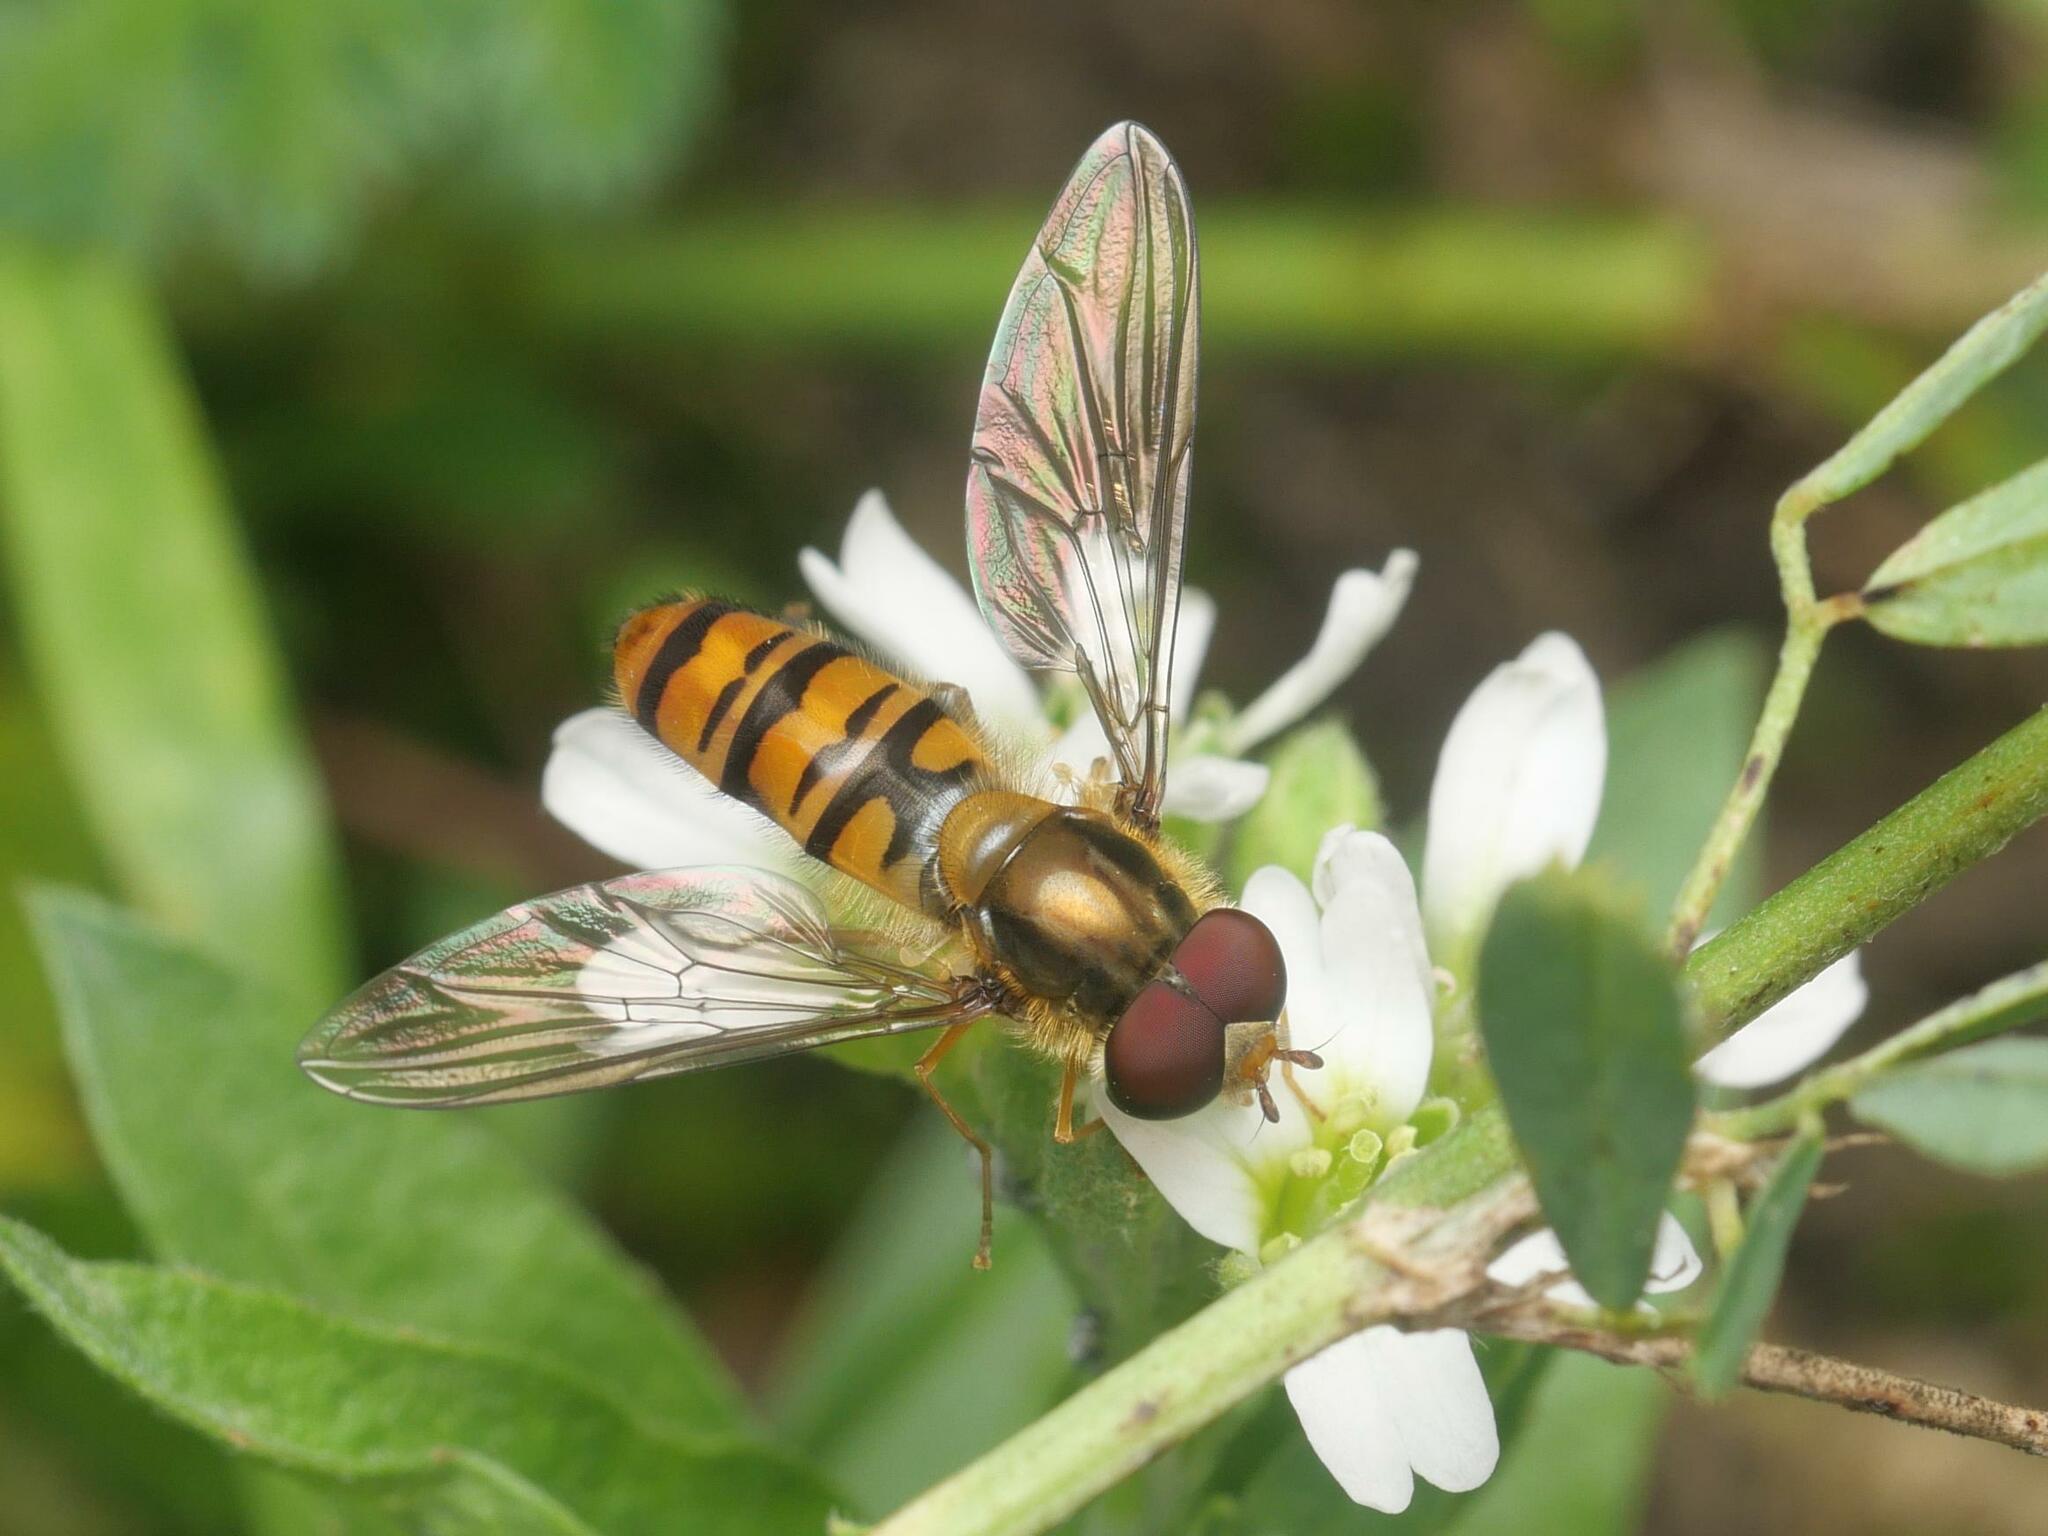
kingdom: Animalia
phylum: Arthropoda
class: Insecta
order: Diptera
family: Syrphidae
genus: Episyrphus
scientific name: Episyrphus balteatus
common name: Marmalade hoverfly
